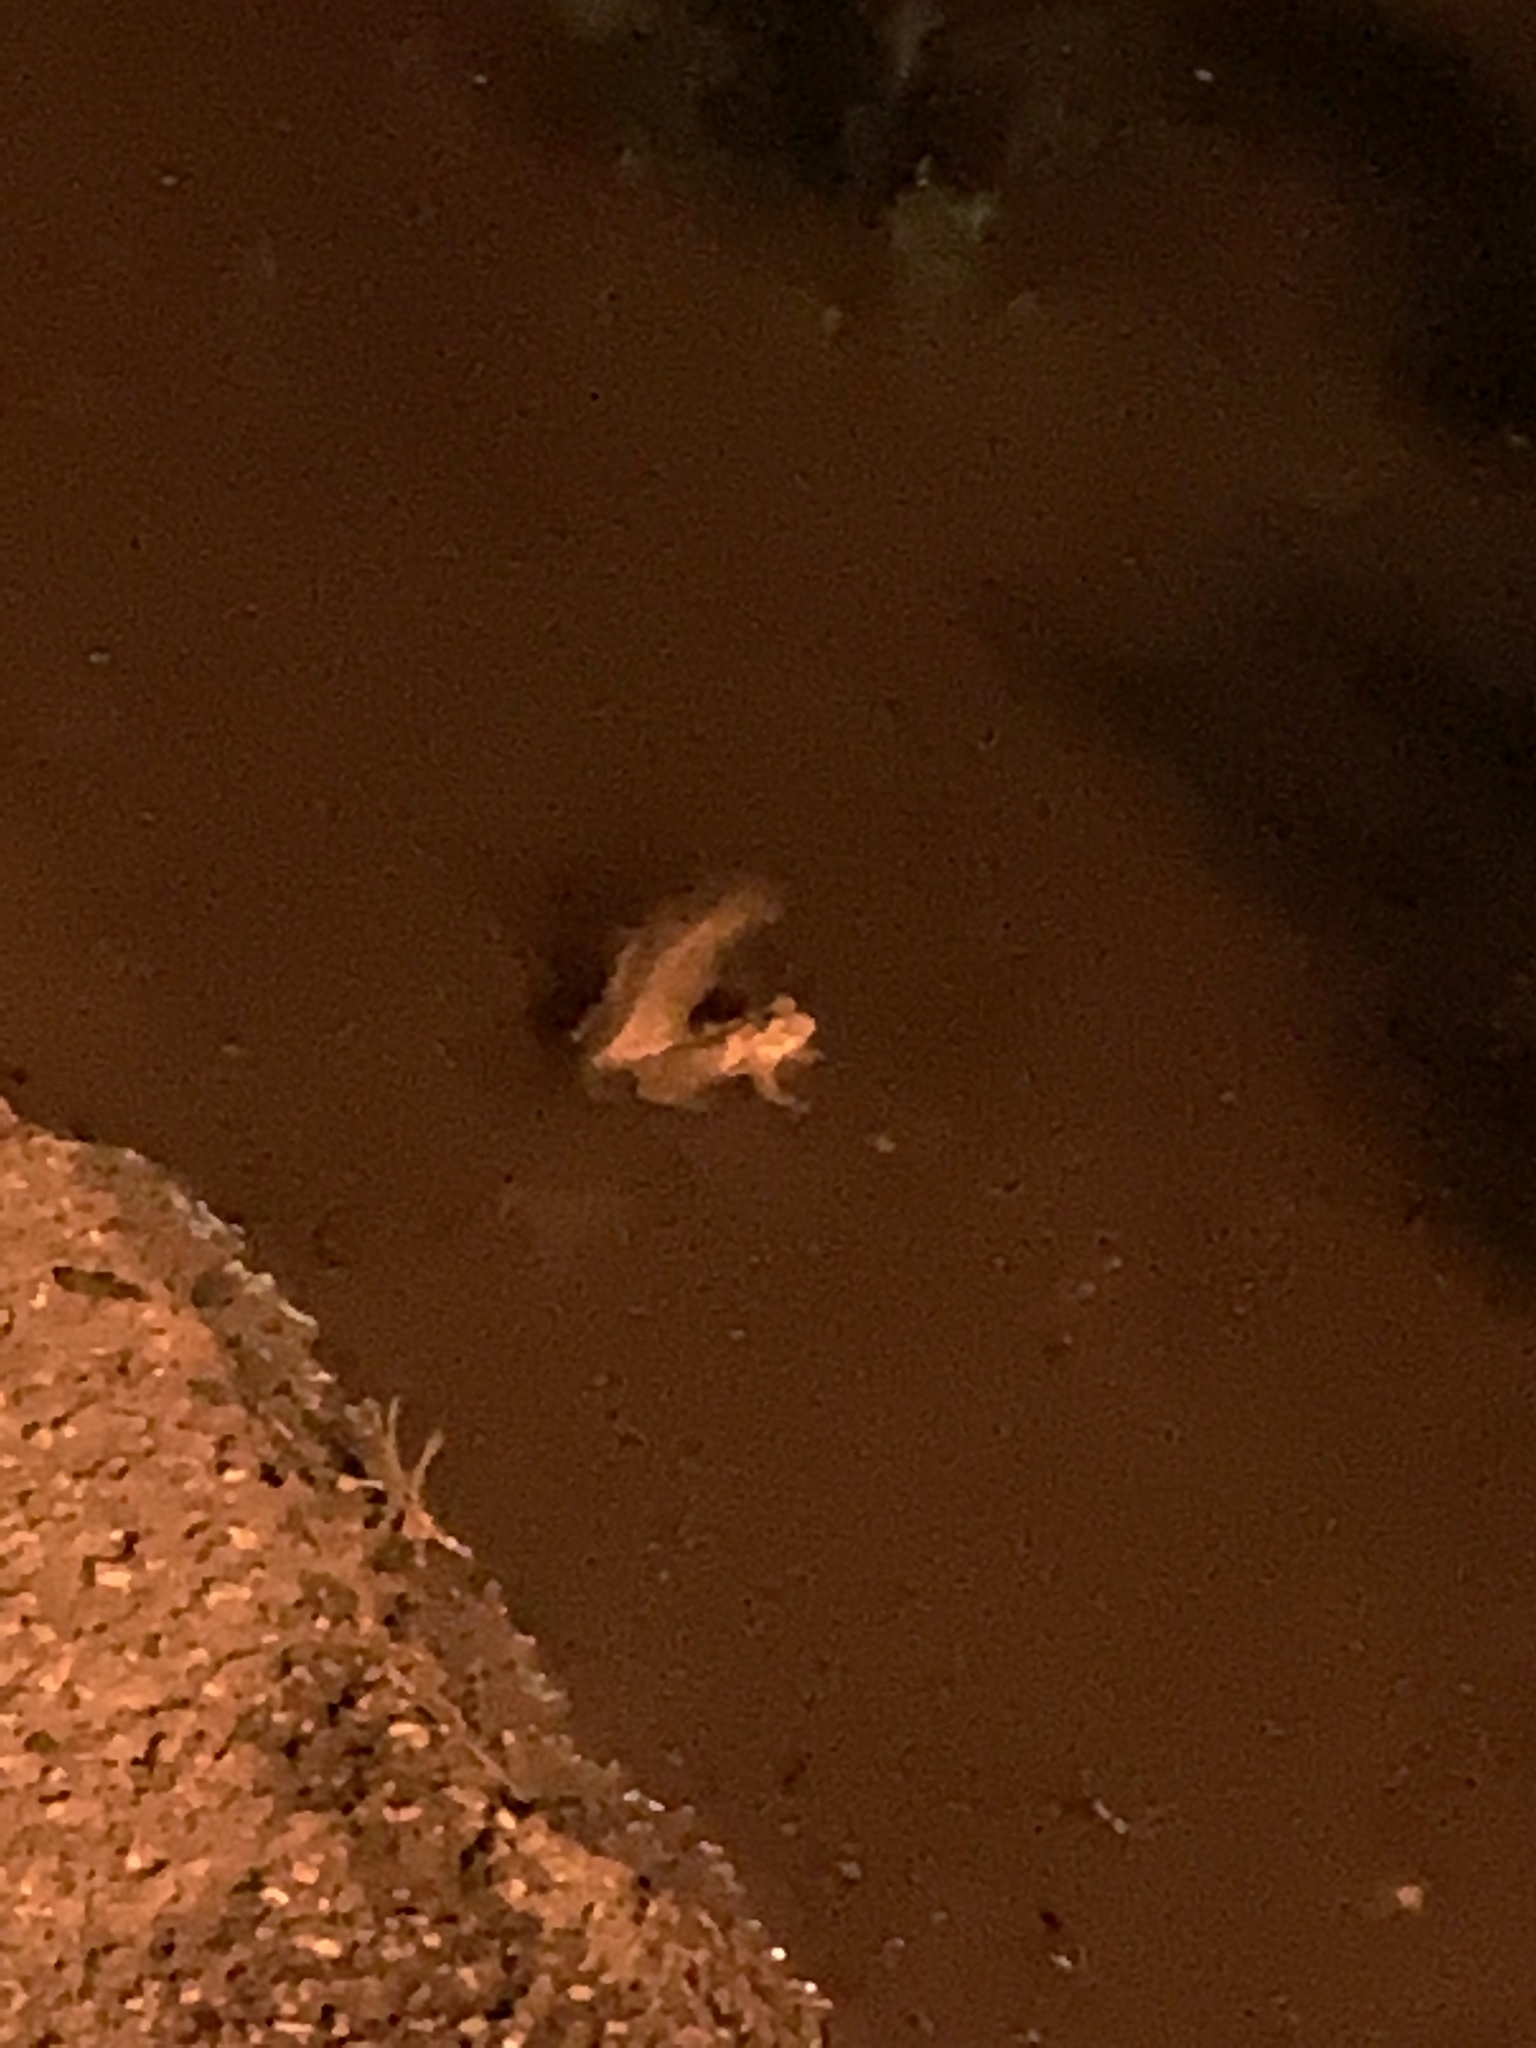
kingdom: Animalia
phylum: Chordata
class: Amphibia
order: Anura
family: Bufonidae
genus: Incilius
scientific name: Incilius nebulifer
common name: Gulf coast toad
